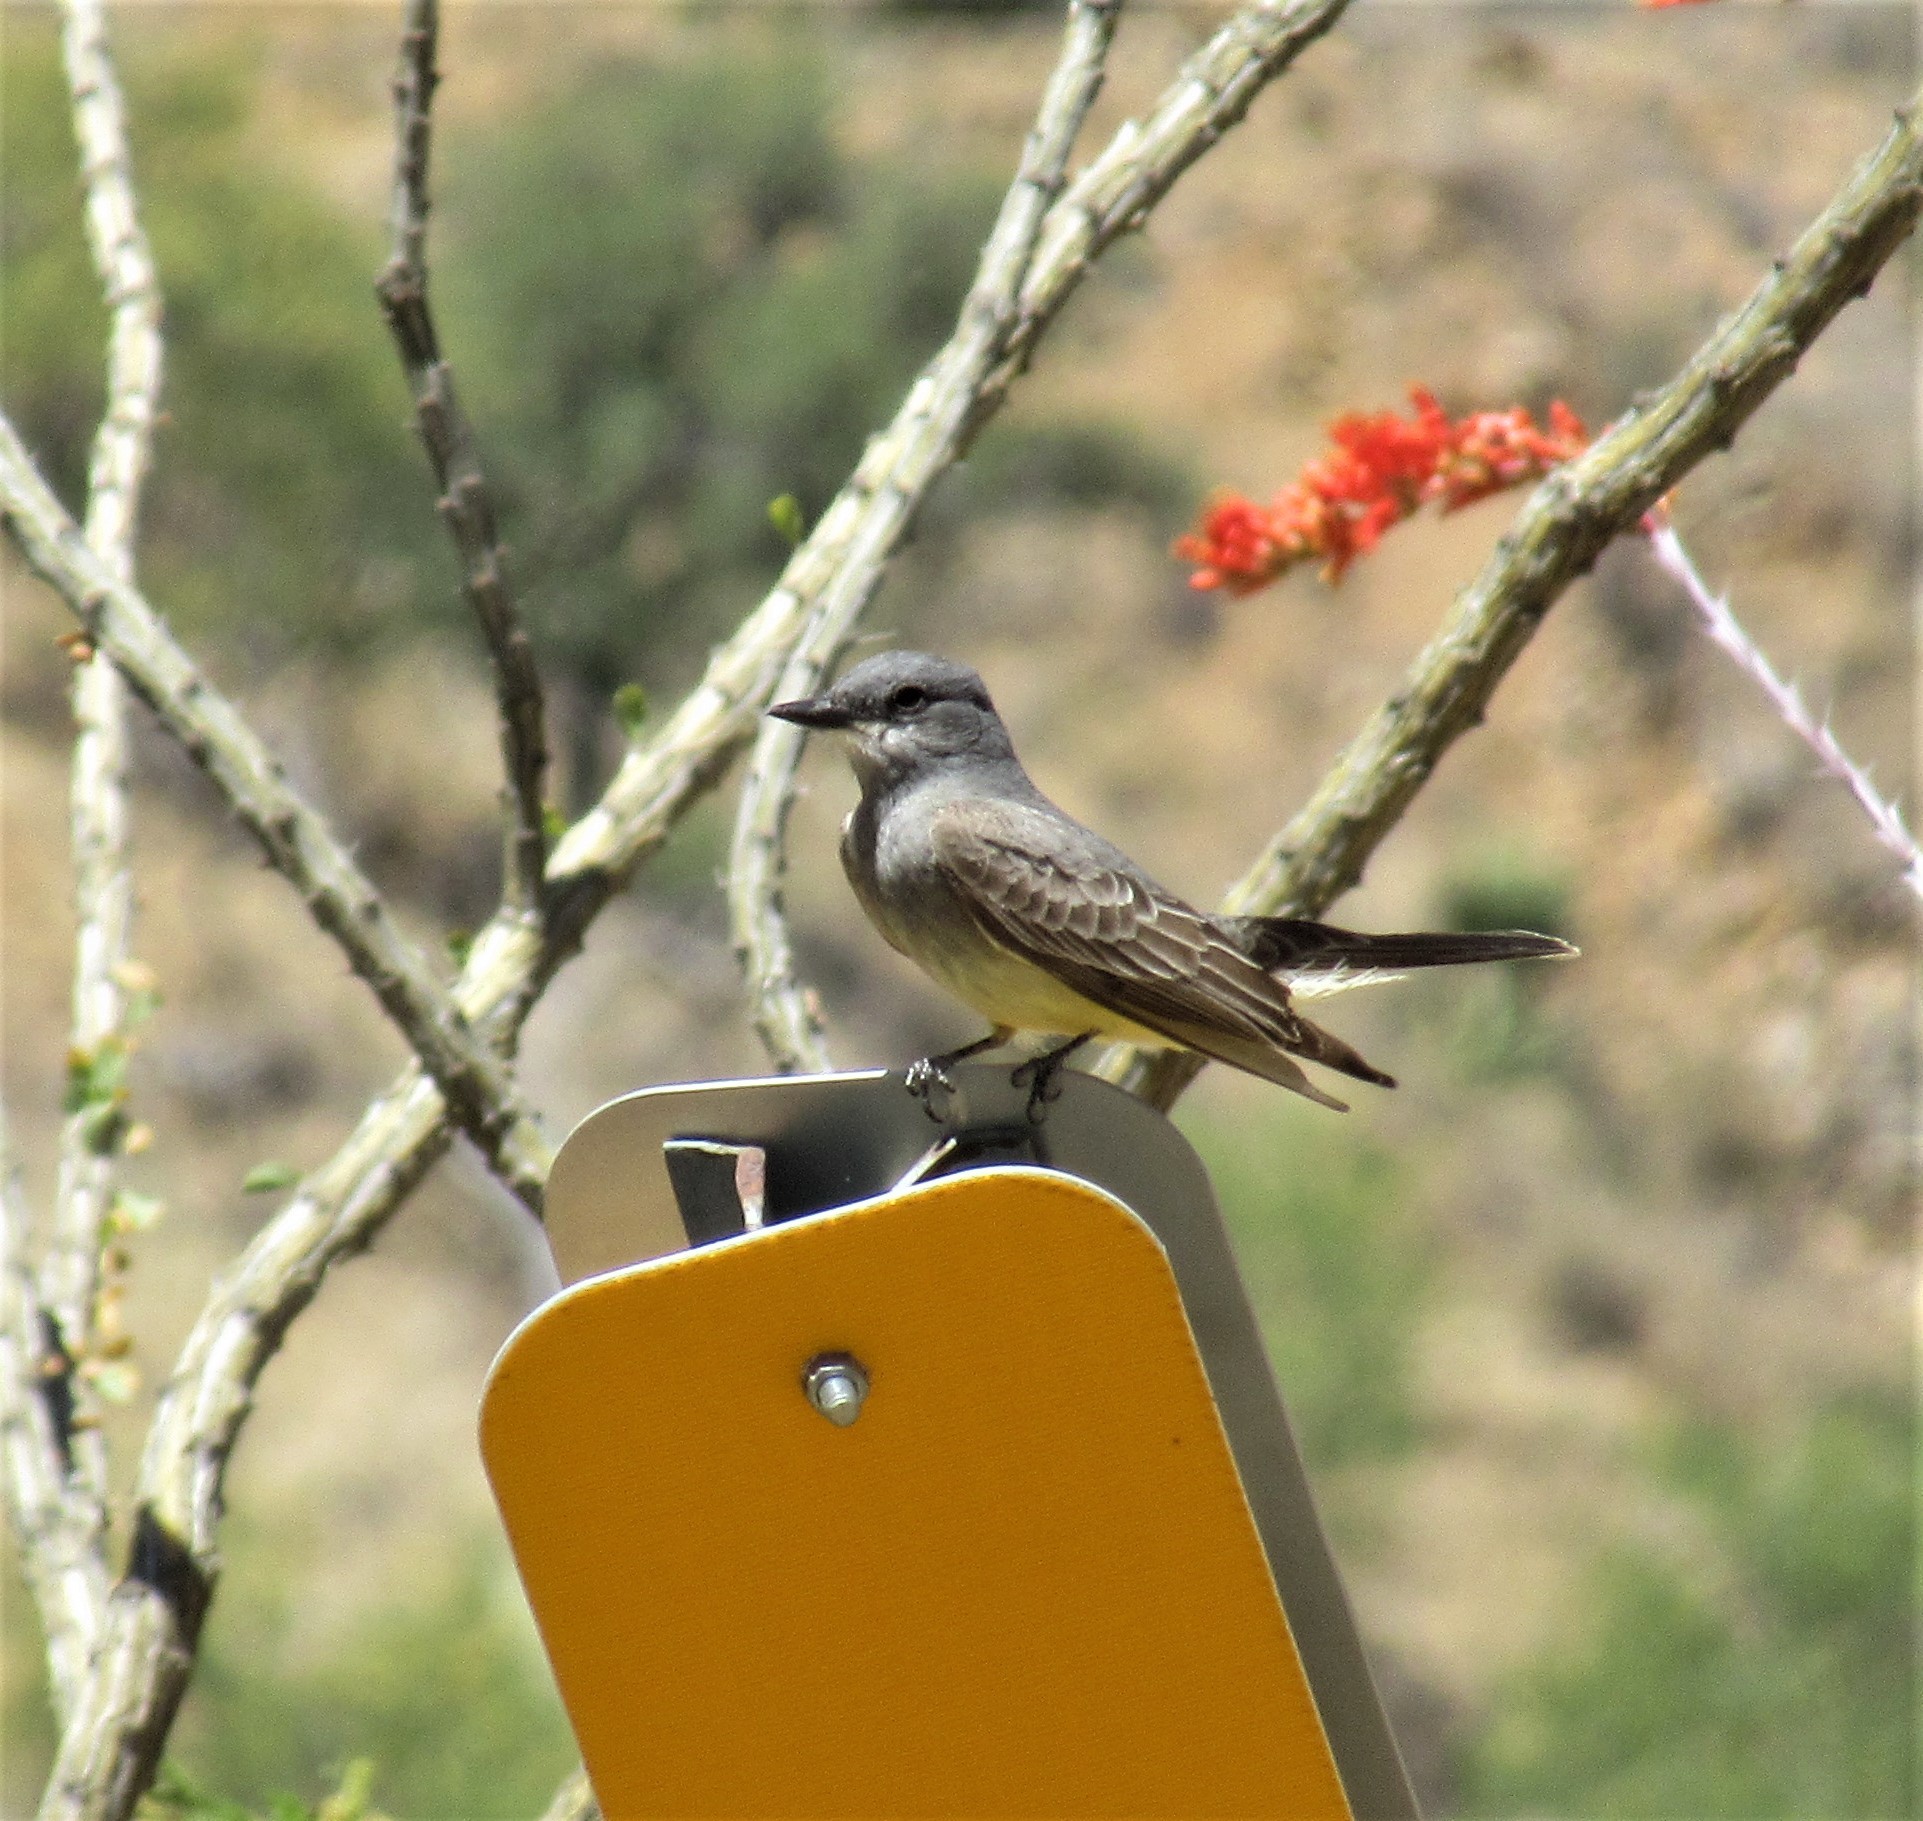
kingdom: Animalia
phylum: Chordata
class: Aves
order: Passeriformes
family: Tyrannidae
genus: Tyrannus
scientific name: Tyrannus vociferans
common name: Cassin's kingbird
